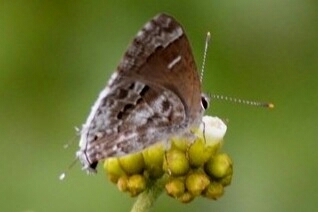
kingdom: Animalia
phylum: Arthropoda
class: Insecta
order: Lepidoptera
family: Lycaenidae
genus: Thecla
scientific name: Thecla cestri
